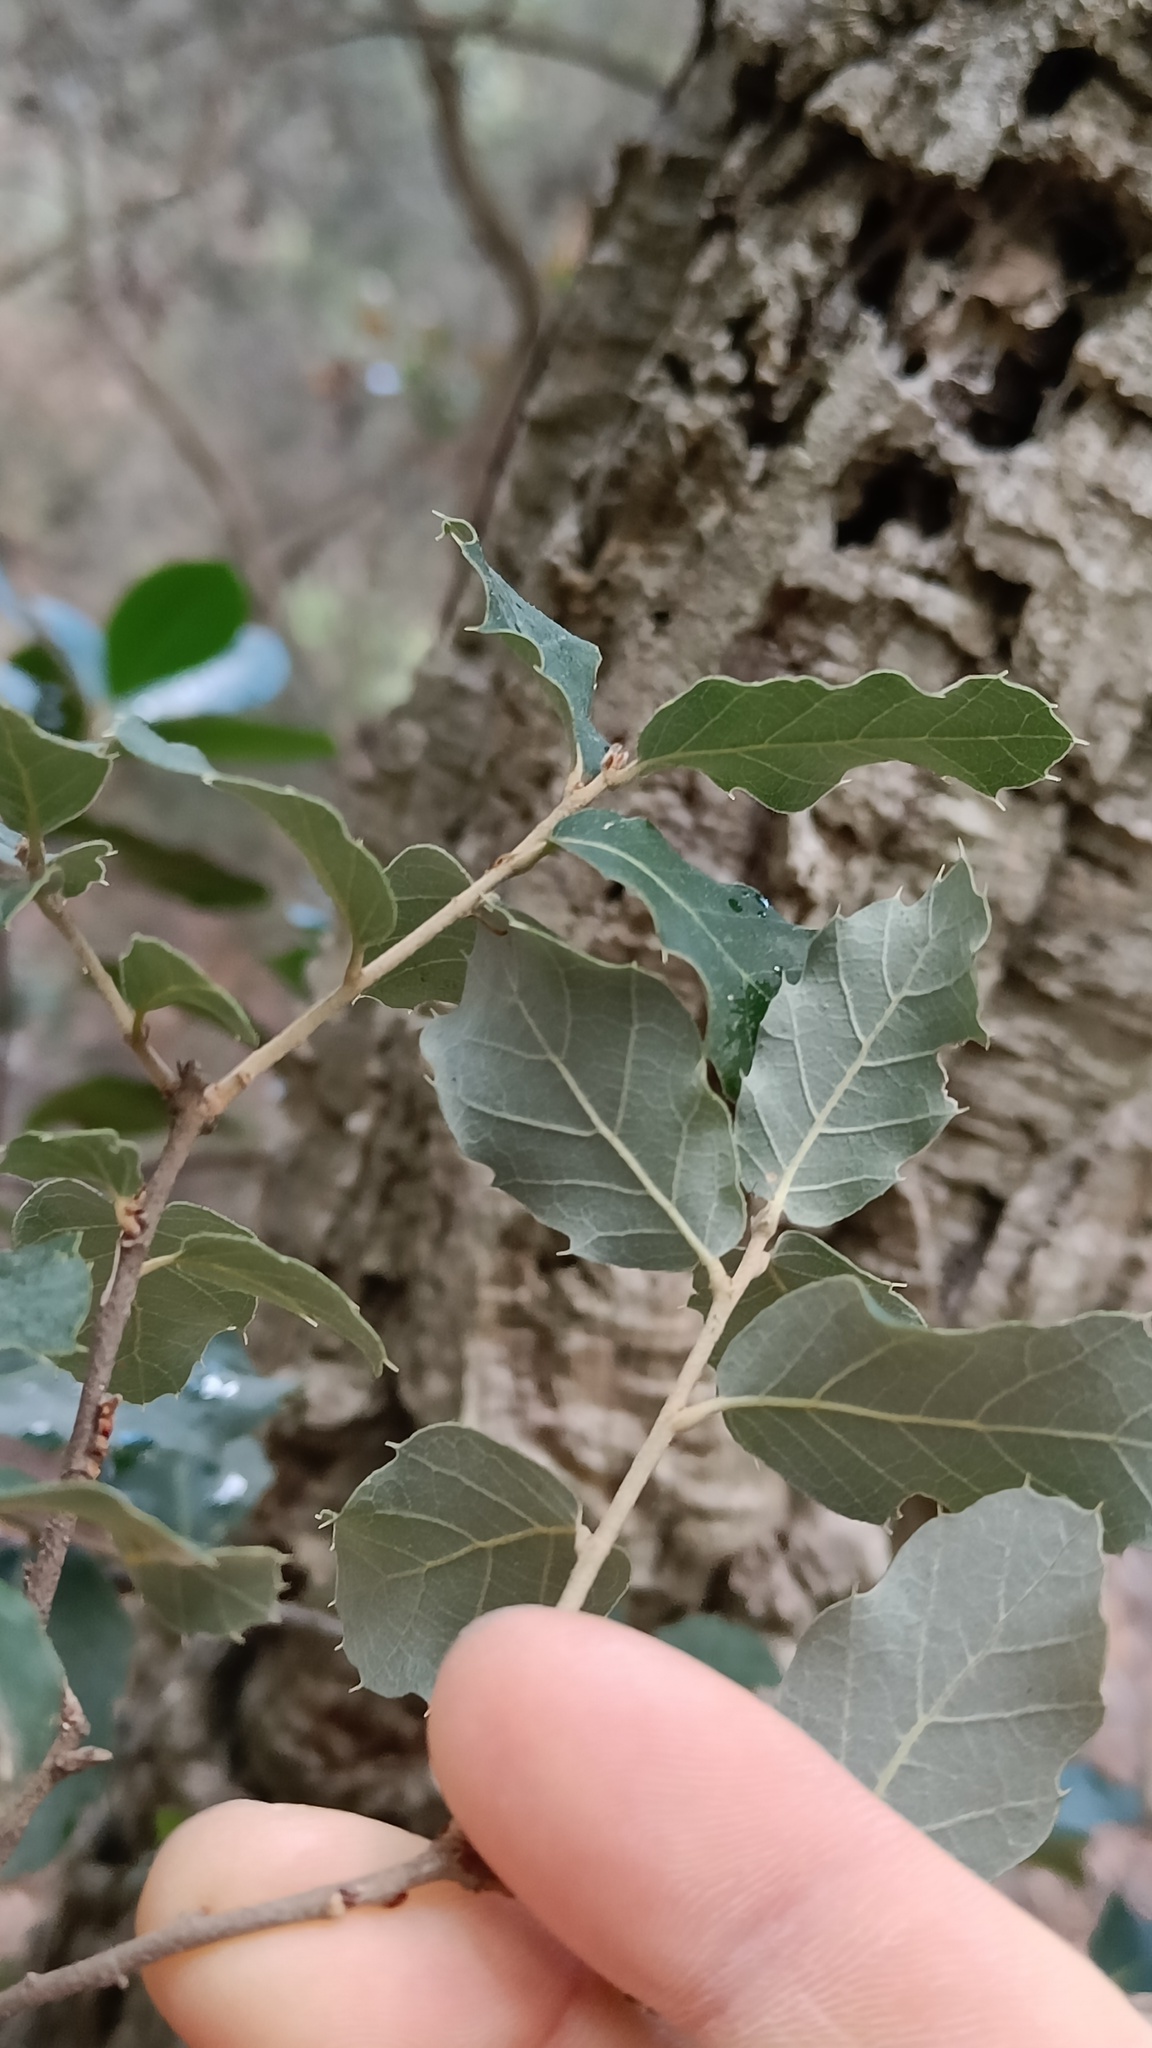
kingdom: Plantae
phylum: Tracheophyta
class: Magnoliopsida
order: Fagales
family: Fagaceae
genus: Quercus
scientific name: Quercus suber
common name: Cork oak
